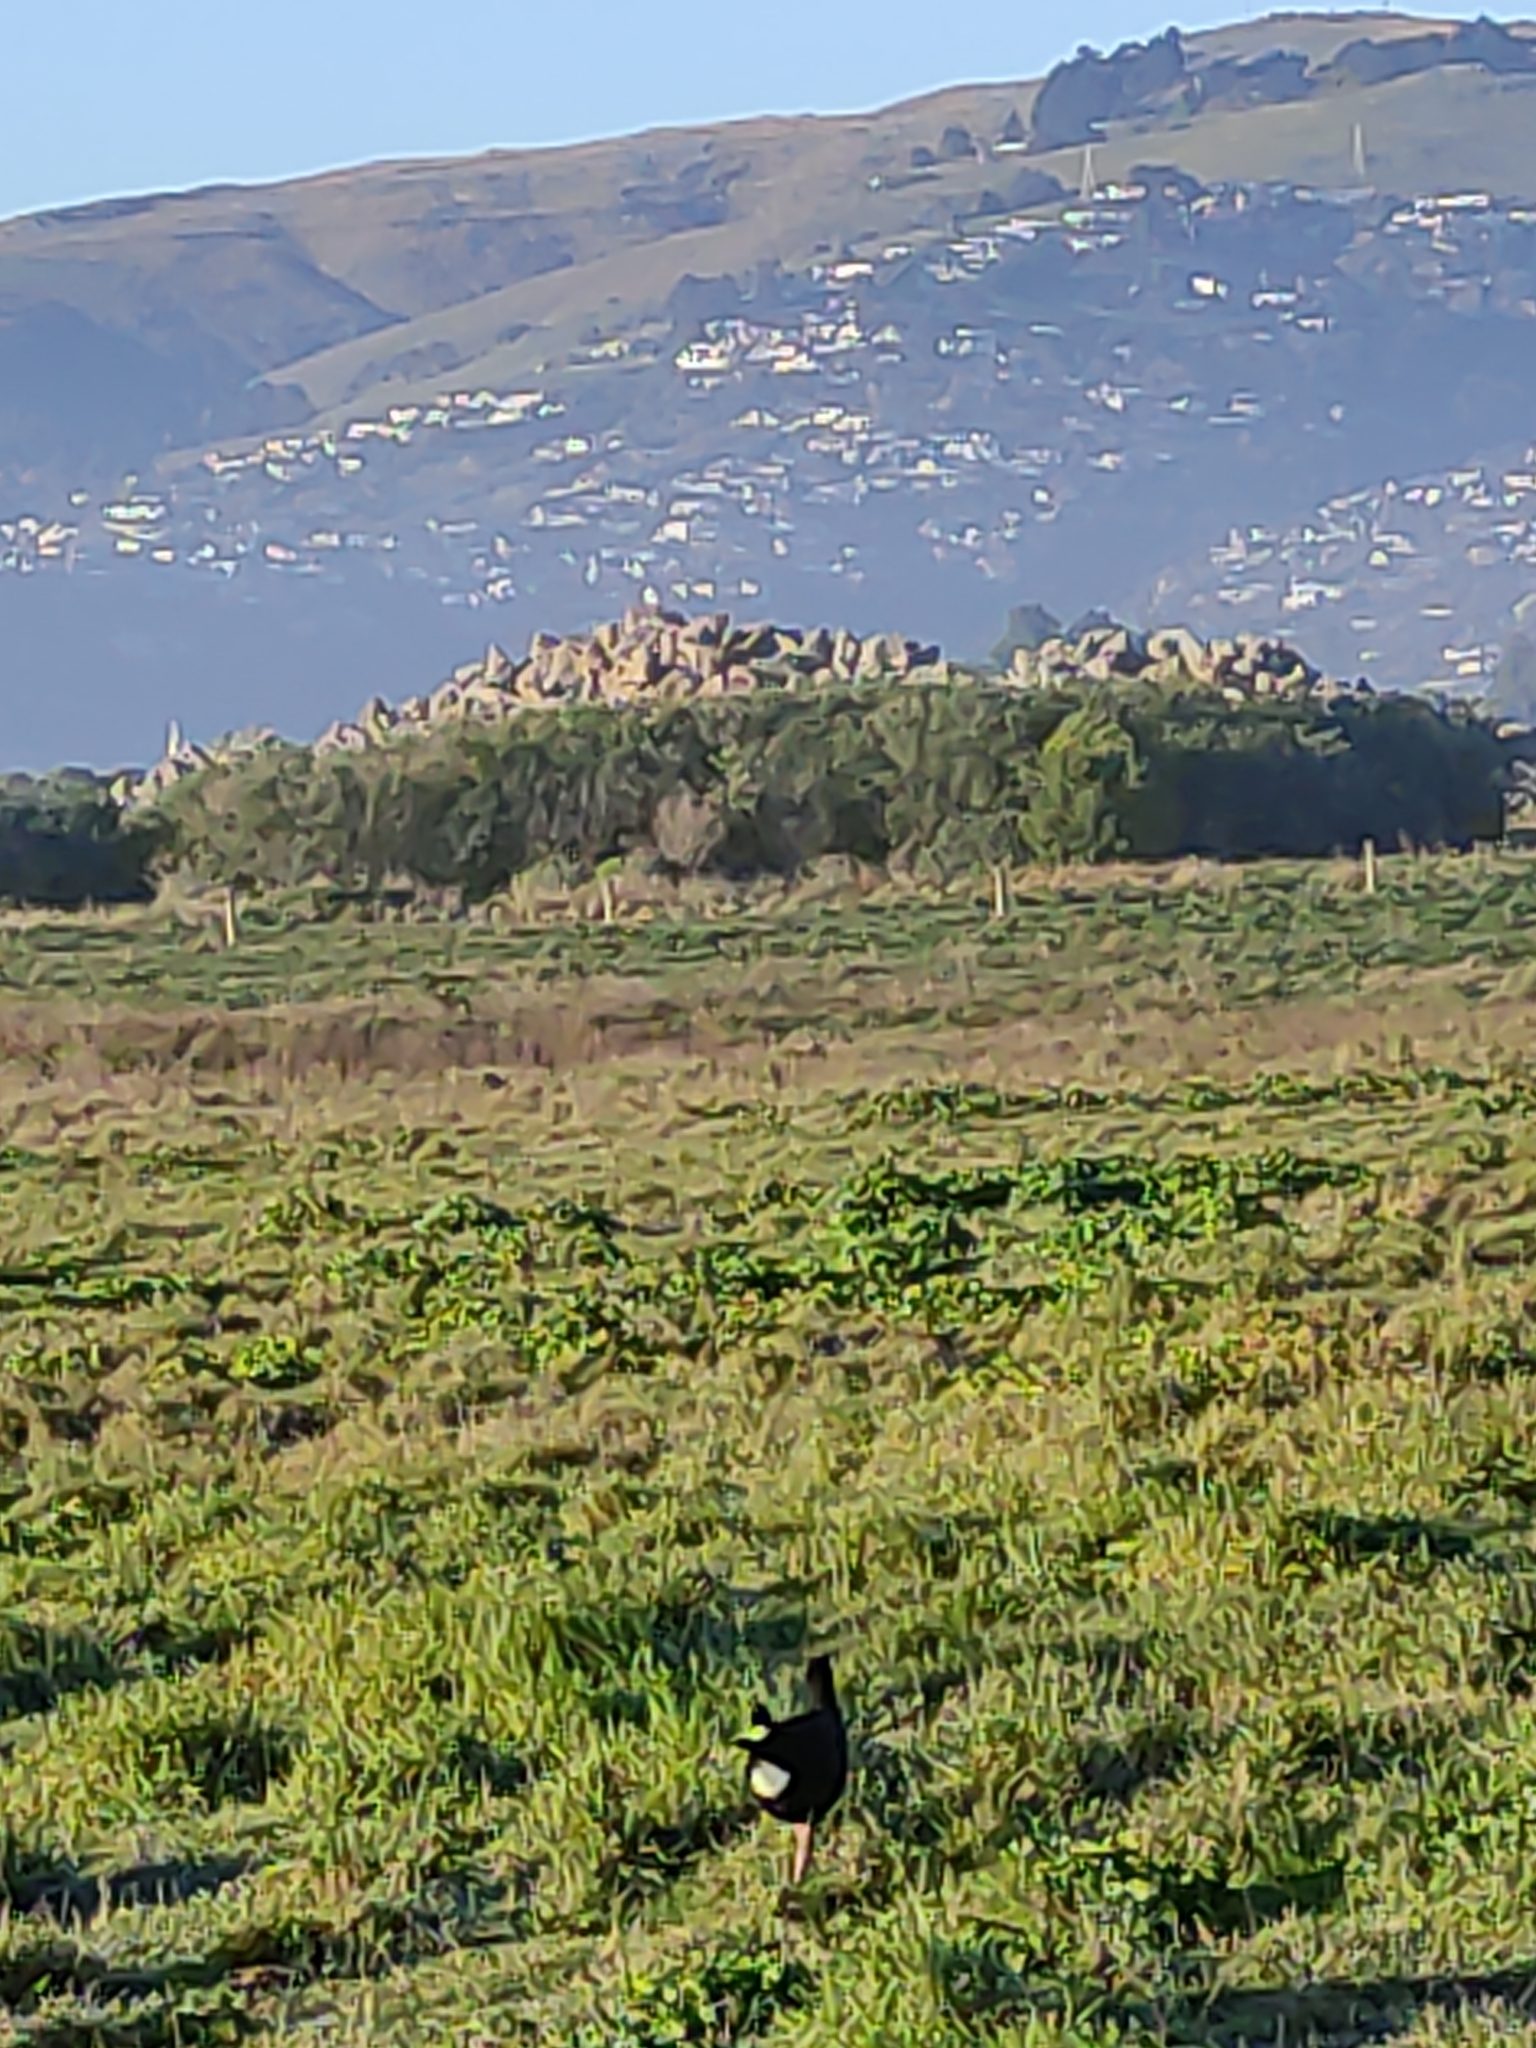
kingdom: Animalia
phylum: Chordata
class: Aves
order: Gruiformes
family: Rallidae
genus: Porphyrio
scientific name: Porphyrio melanotus
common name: Australasian swamphen
